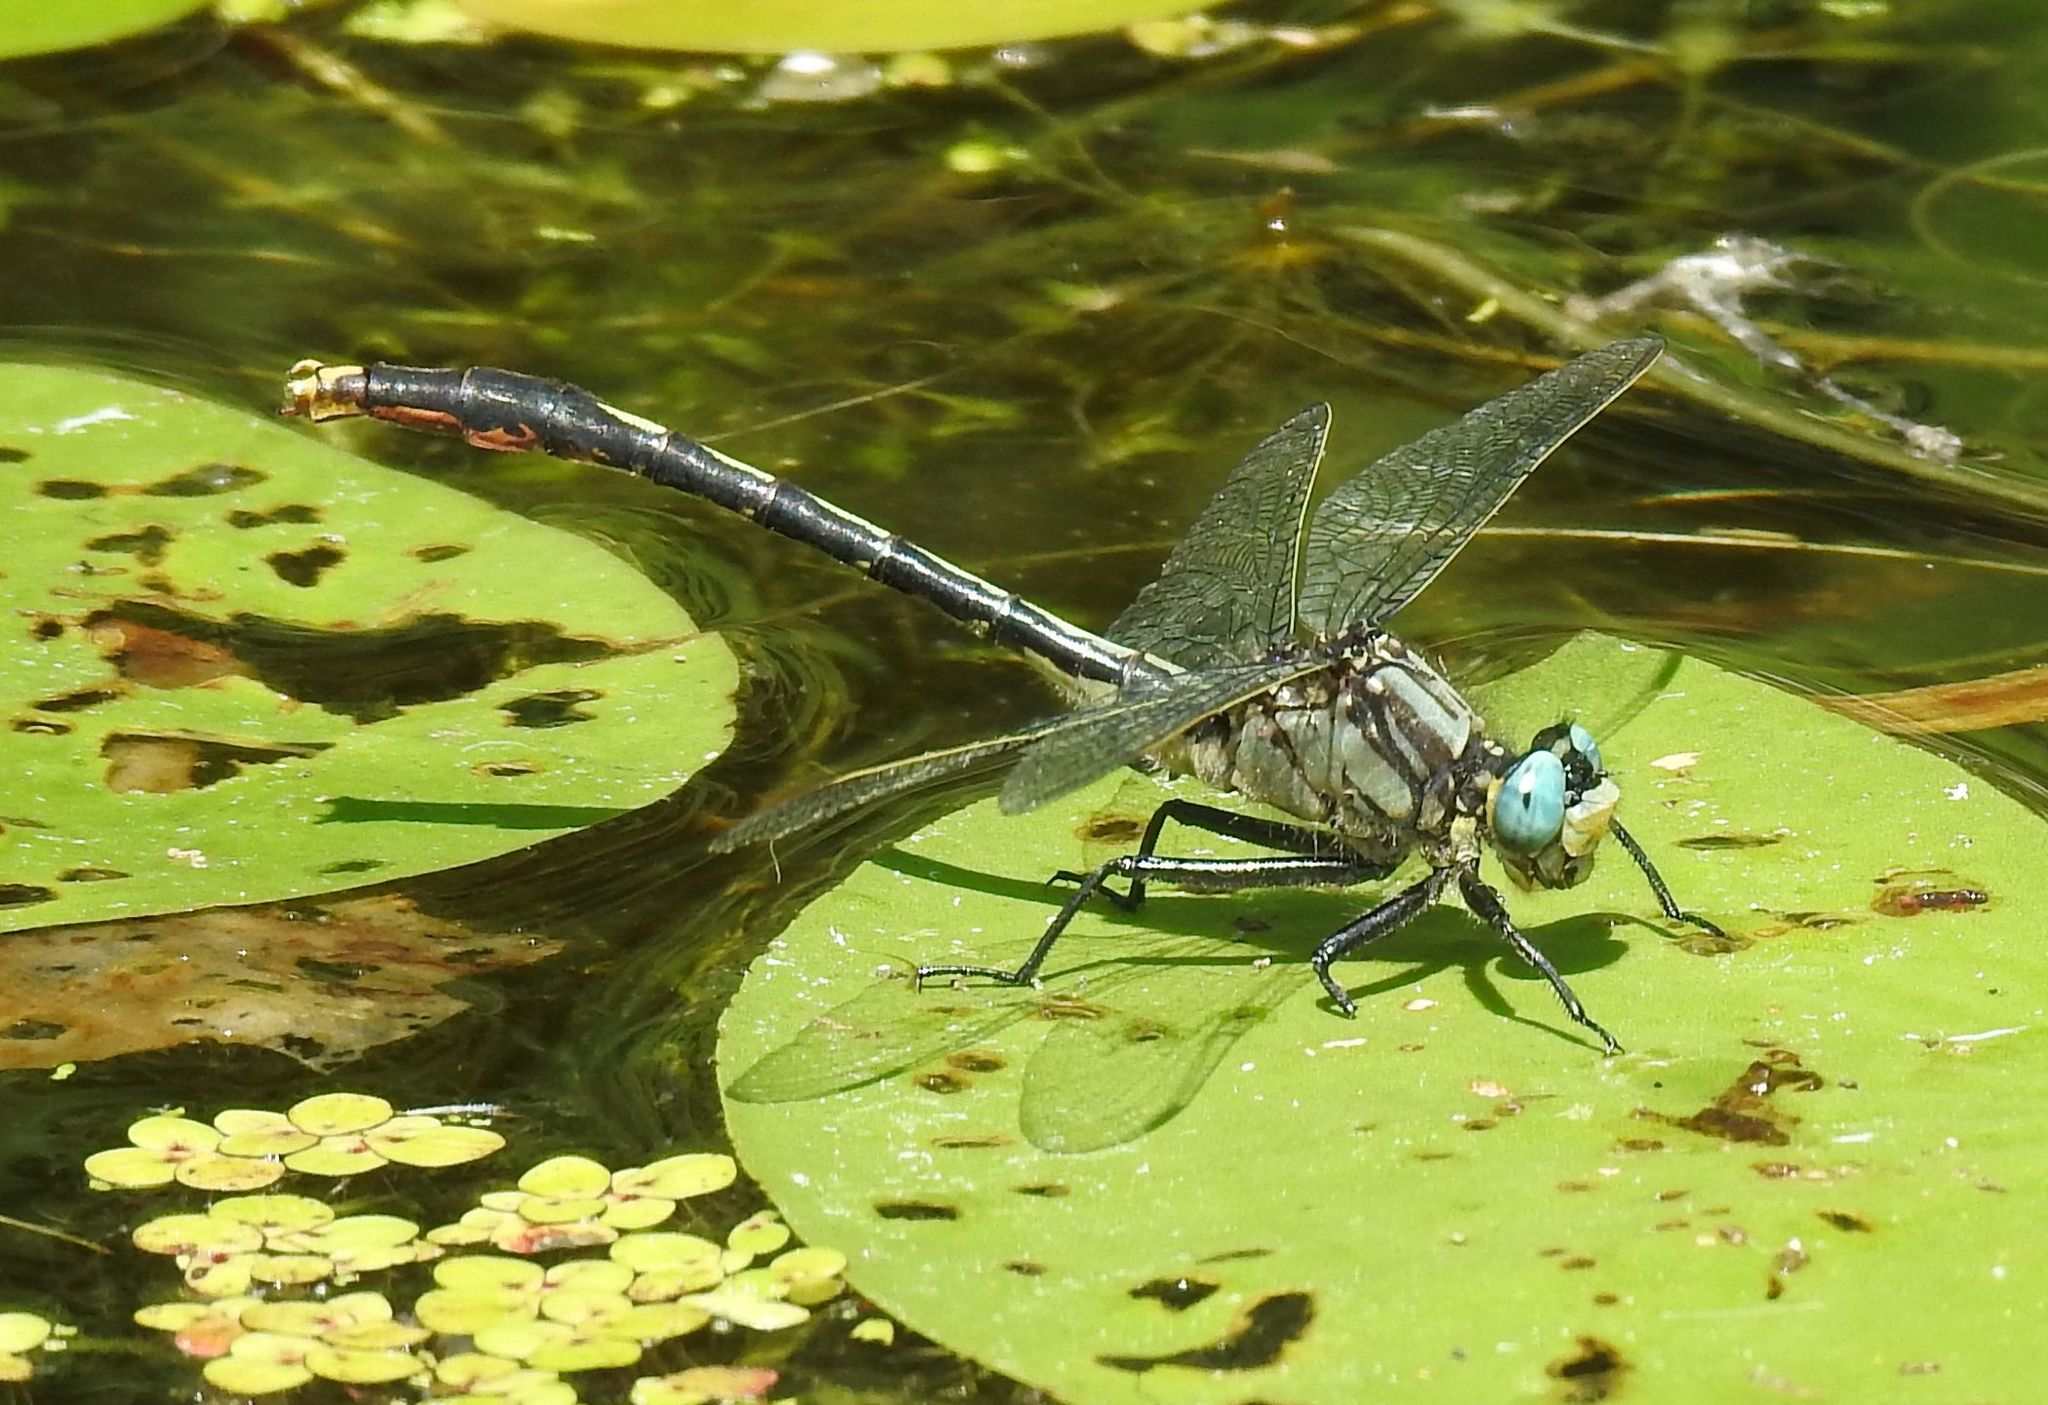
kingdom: Animalia
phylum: Arthropoda
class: Insecta
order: Odonata
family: Gomphidae
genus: Arigomphus
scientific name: Arigomphus furcifer
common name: Lilypad clubtail
